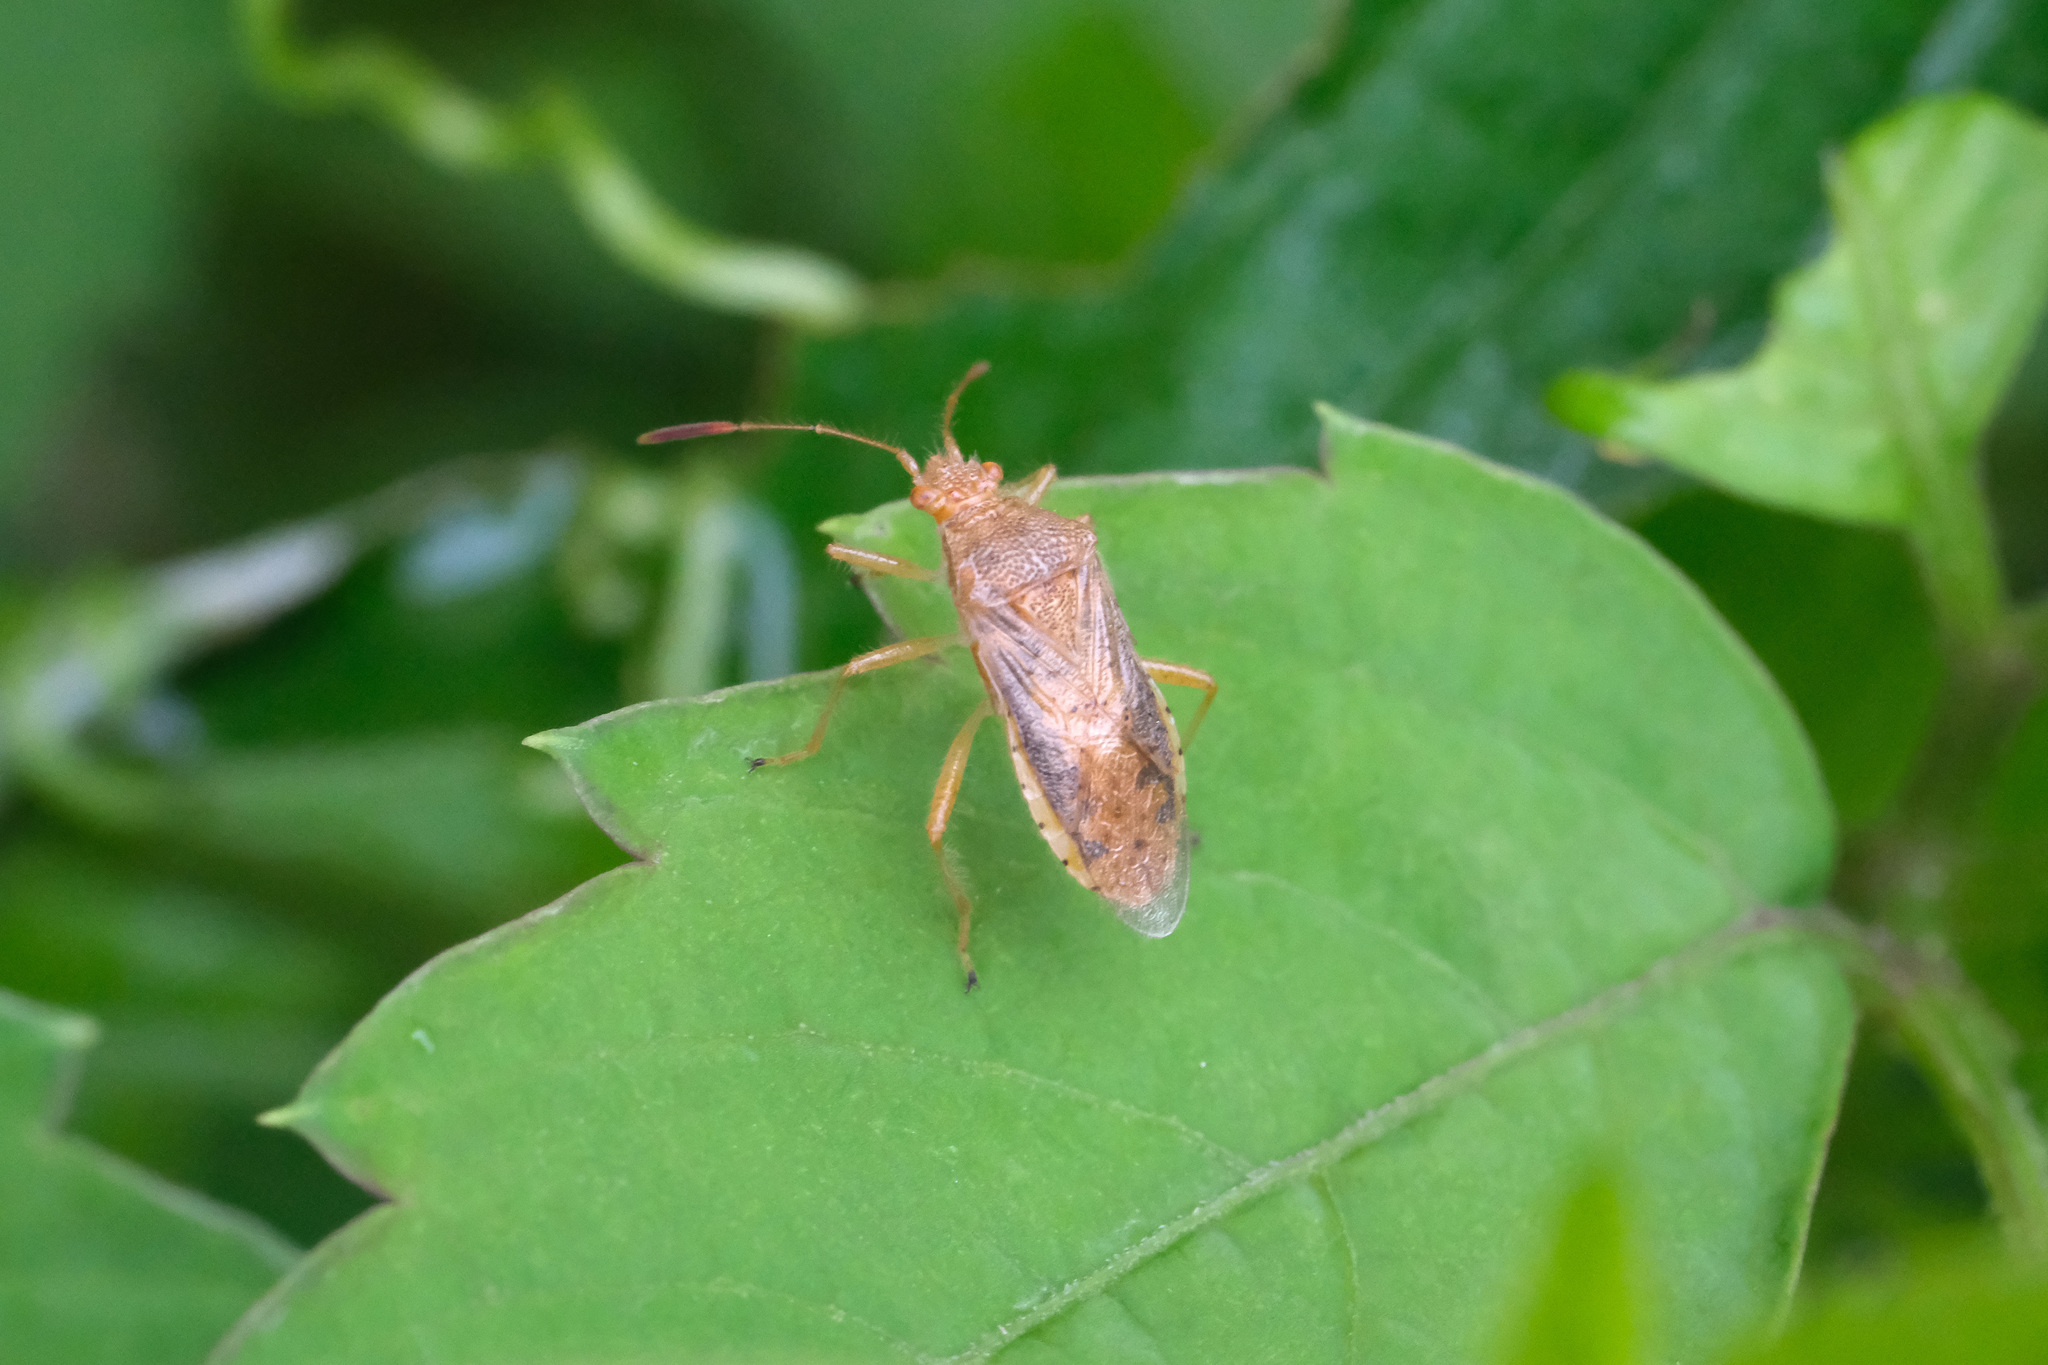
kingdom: Animalia
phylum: Arthropoda
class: Insecta
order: Hemiptera
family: Rhopalidae
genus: Rhopalus
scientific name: Rhopalus maculatus
